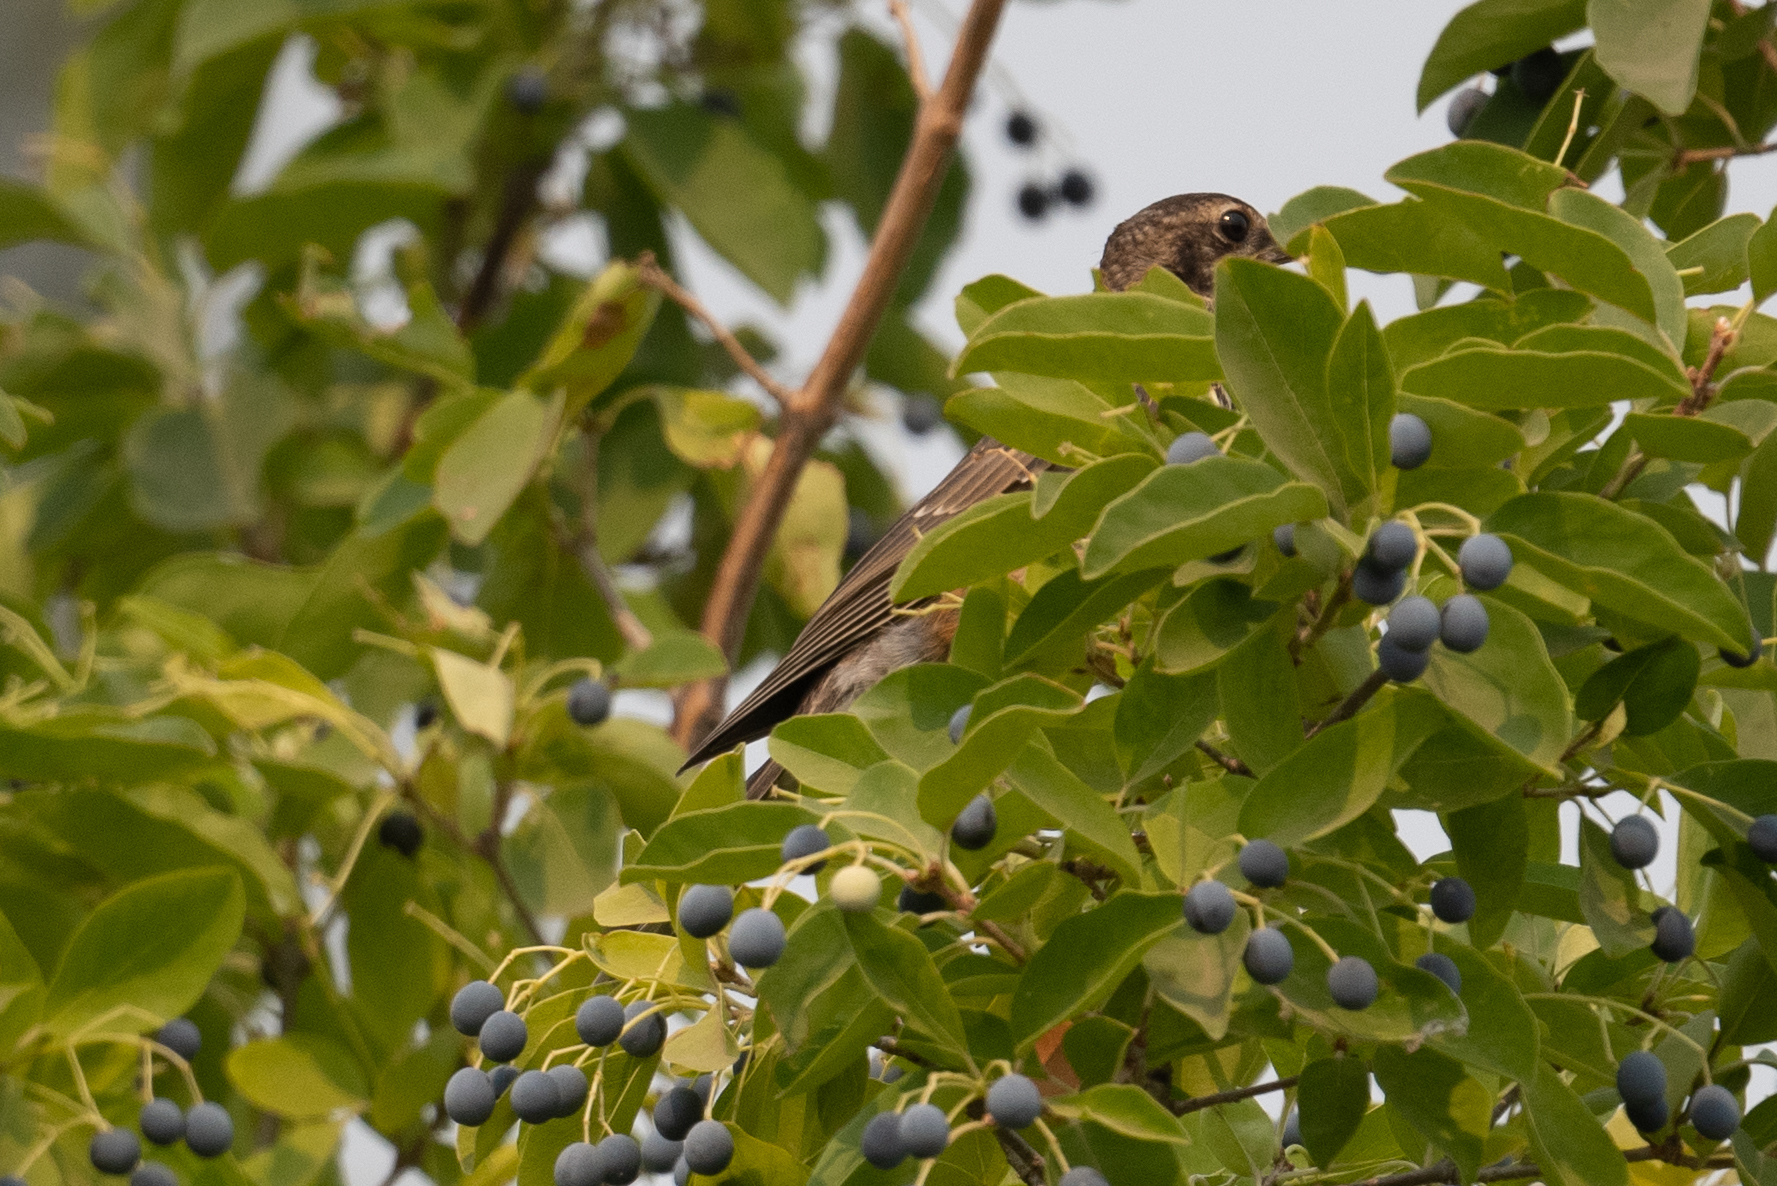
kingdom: Animalia
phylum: Chordata
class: Aves
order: Passeriformes
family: Turdidae
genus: Turdus
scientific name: Turdus migratorius
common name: American robin
